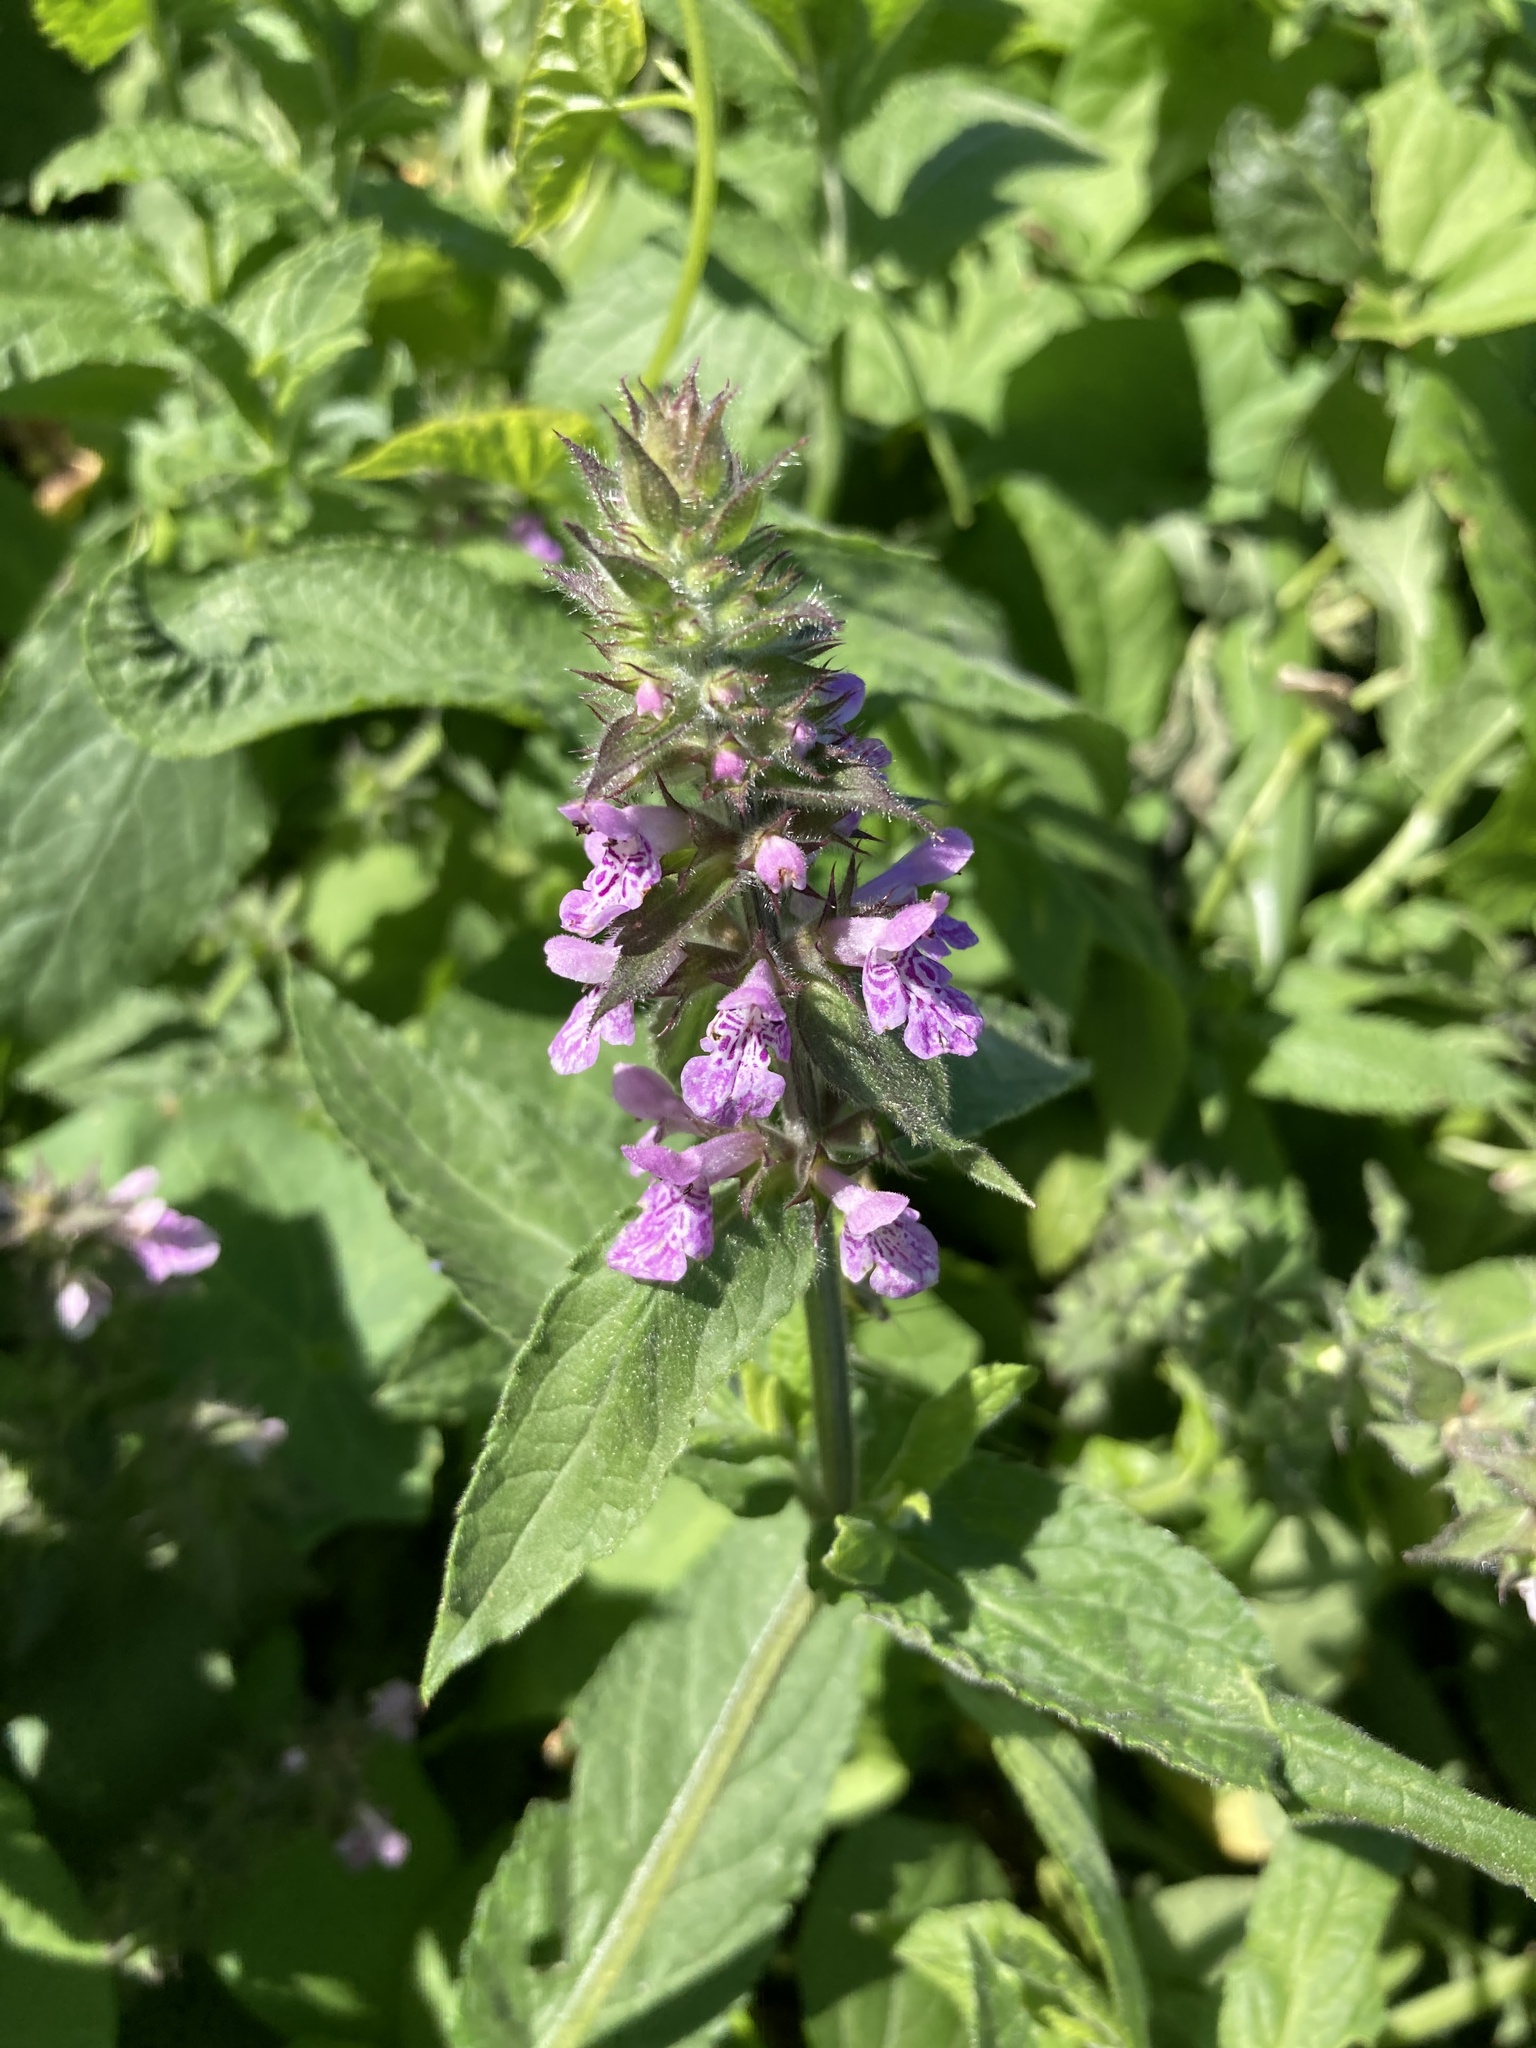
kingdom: Plantae
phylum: Tracheophyta
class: Magnoliopsida
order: Lamiales
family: Lamiaceae
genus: Stachys
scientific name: Stachys palustris
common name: Marsh woundwort
